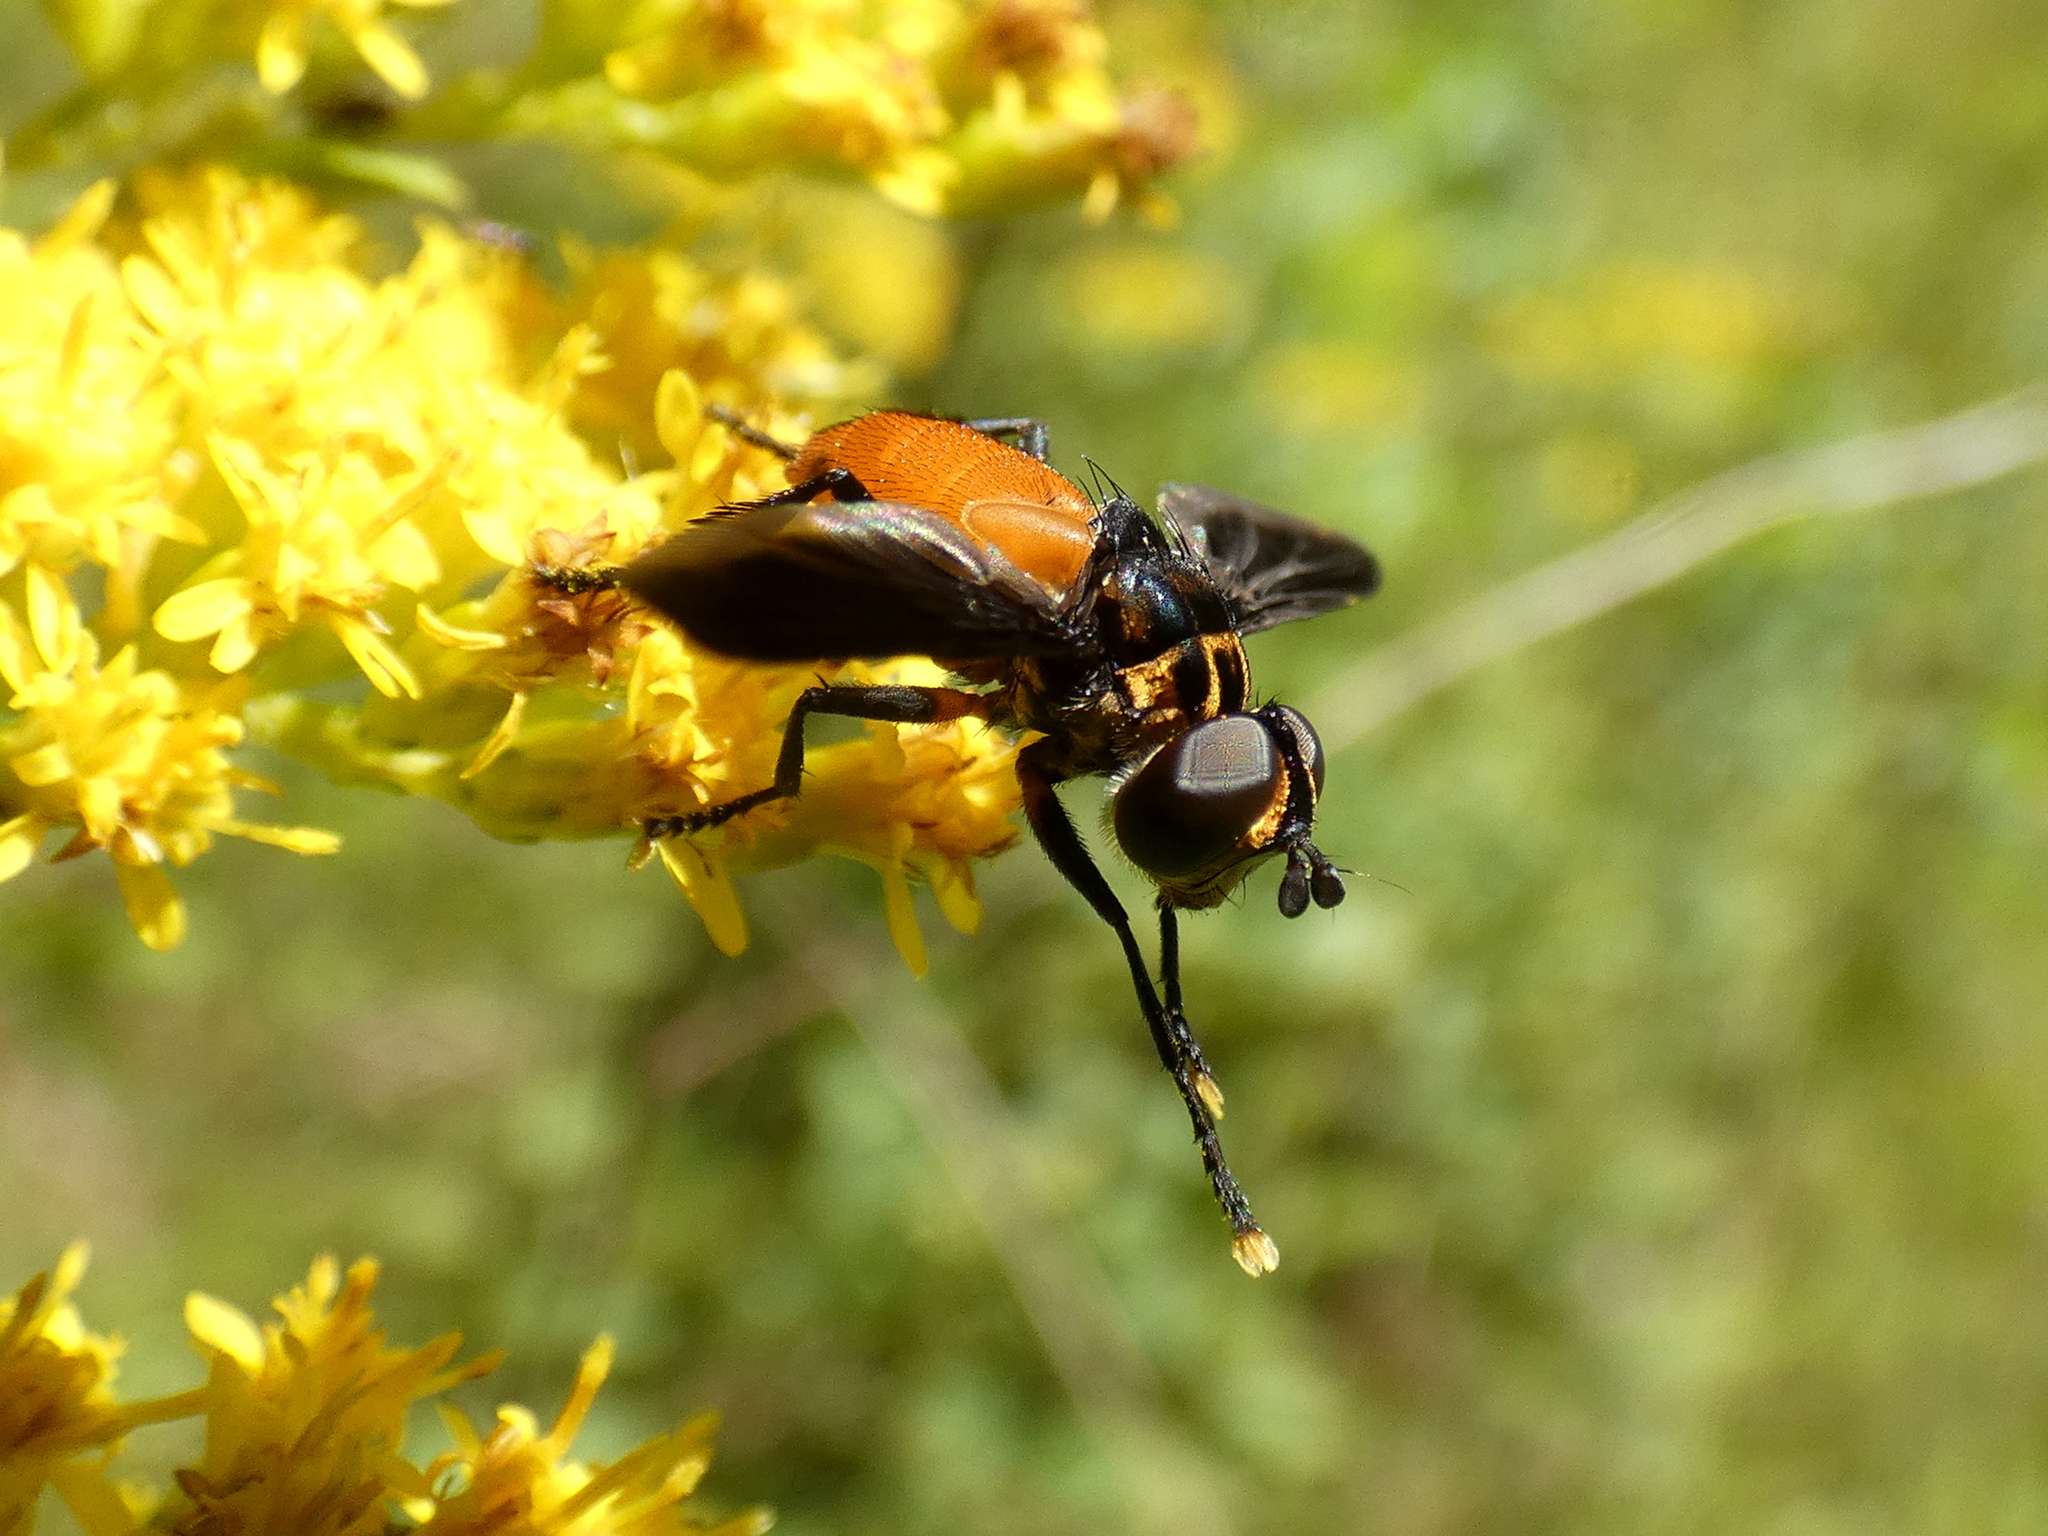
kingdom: Animalia
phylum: Arthropoda
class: Insecta
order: Diptera
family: Tachinidae
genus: Trichopoda
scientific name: Trichopoda pennipes
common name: Tachinid fly
